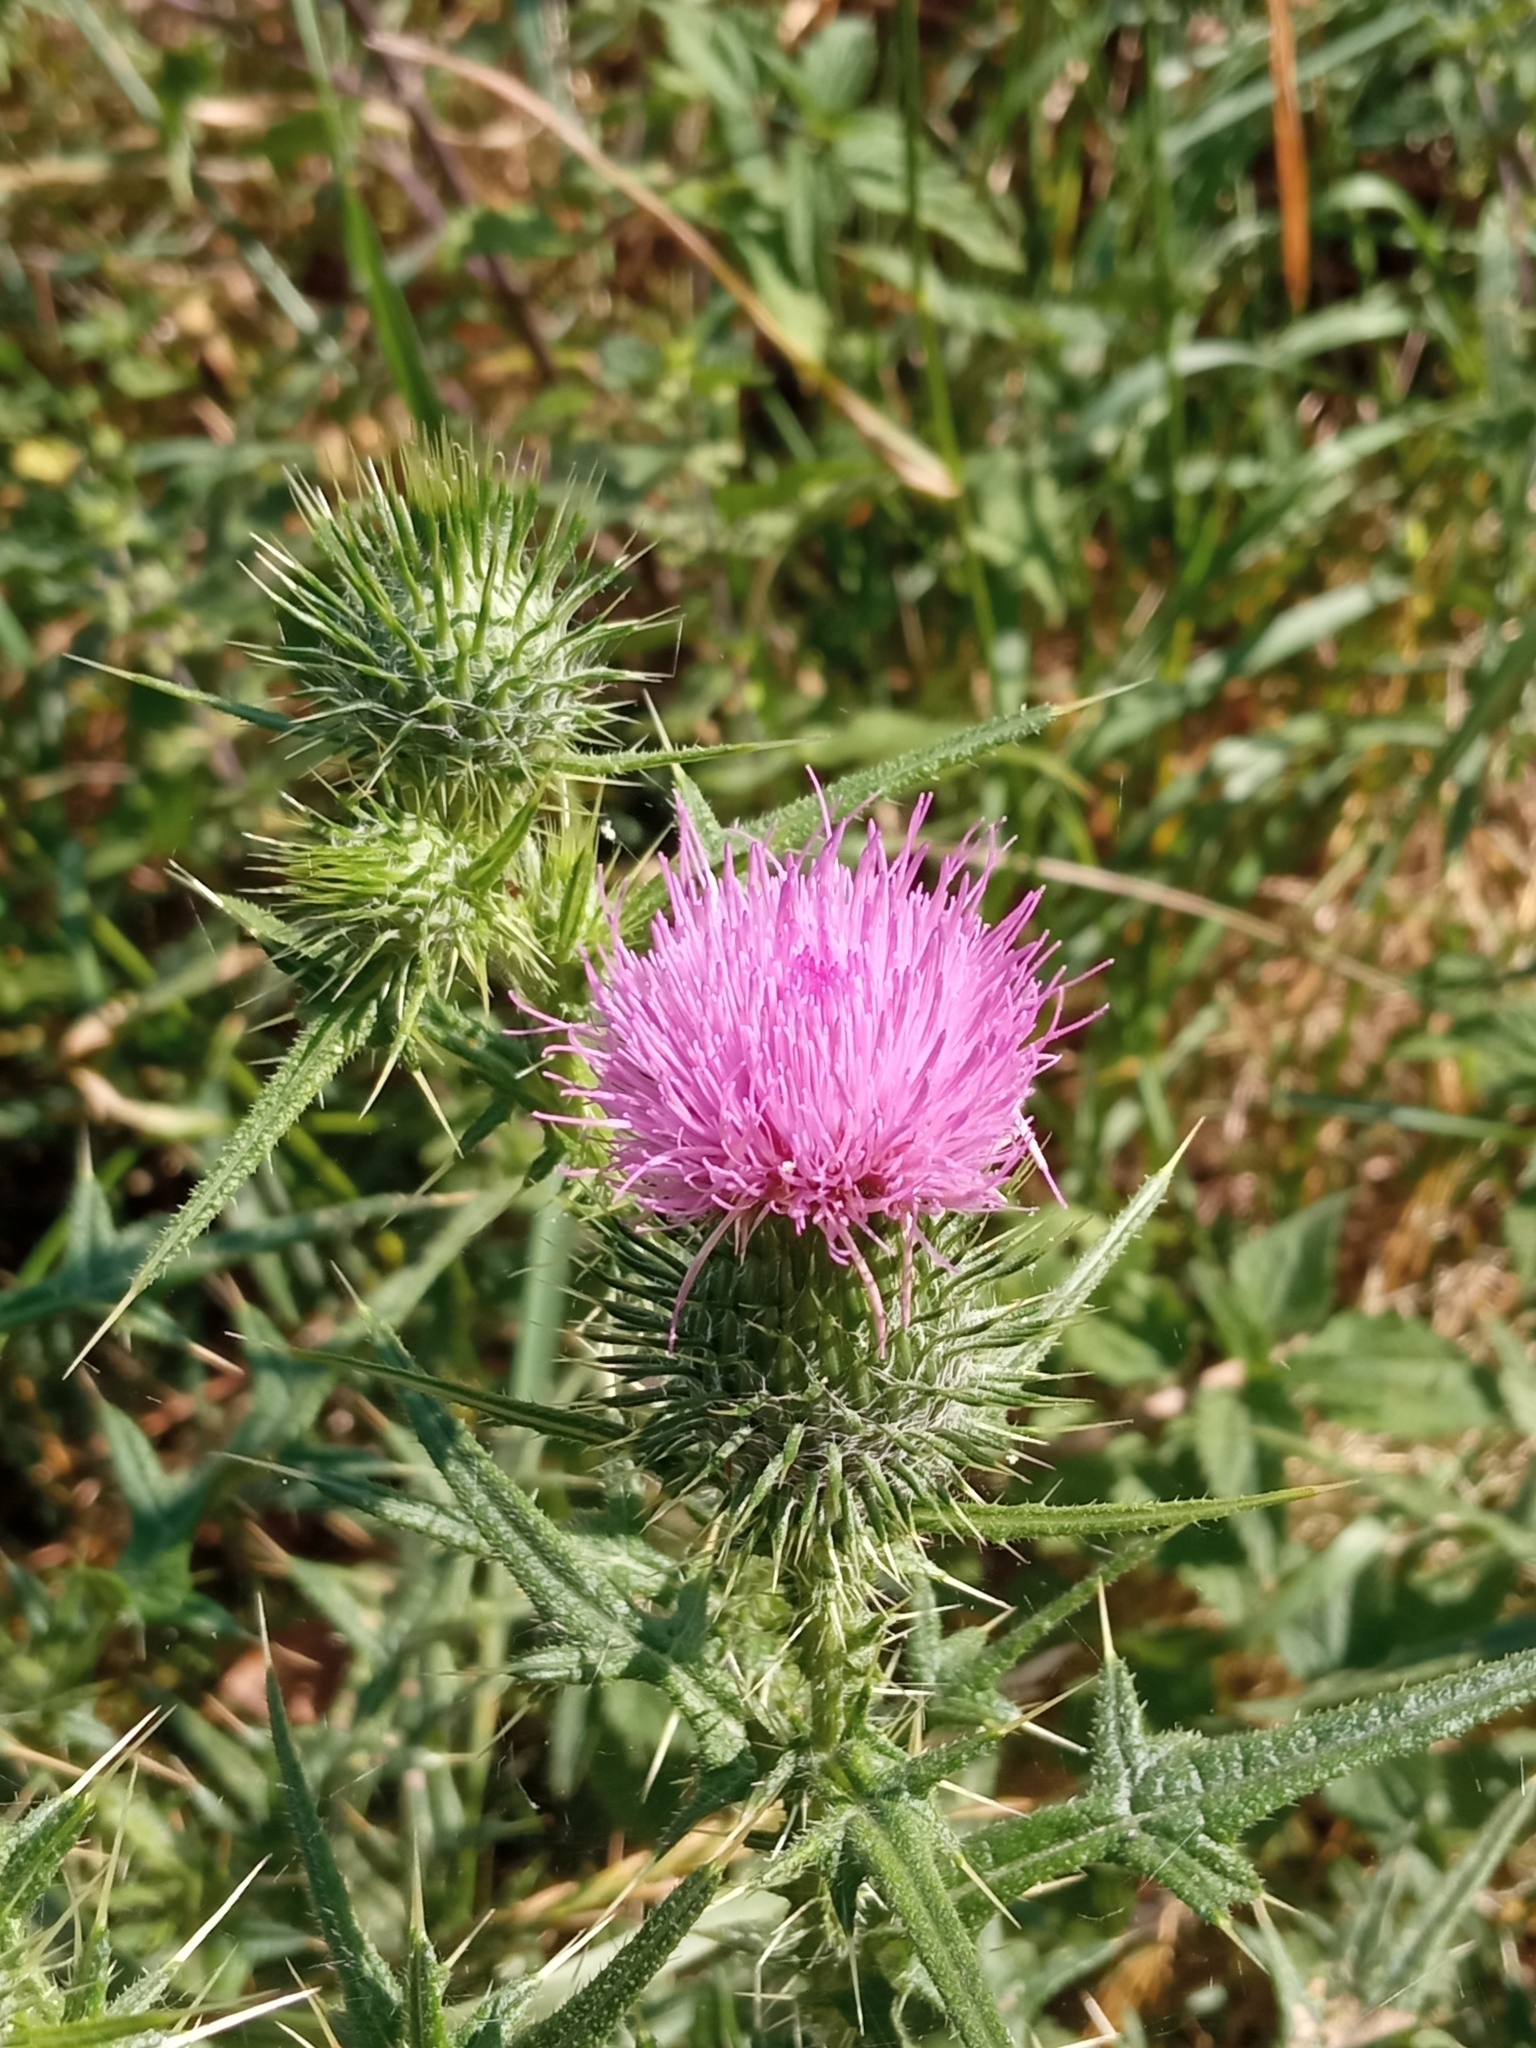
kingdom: Plantae
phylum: Tracheophyta
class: Magnoliopsida
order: Asterales
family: Asteraceae
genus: Cirsium
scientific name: Cirsium vulgare
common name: Bull thistle
